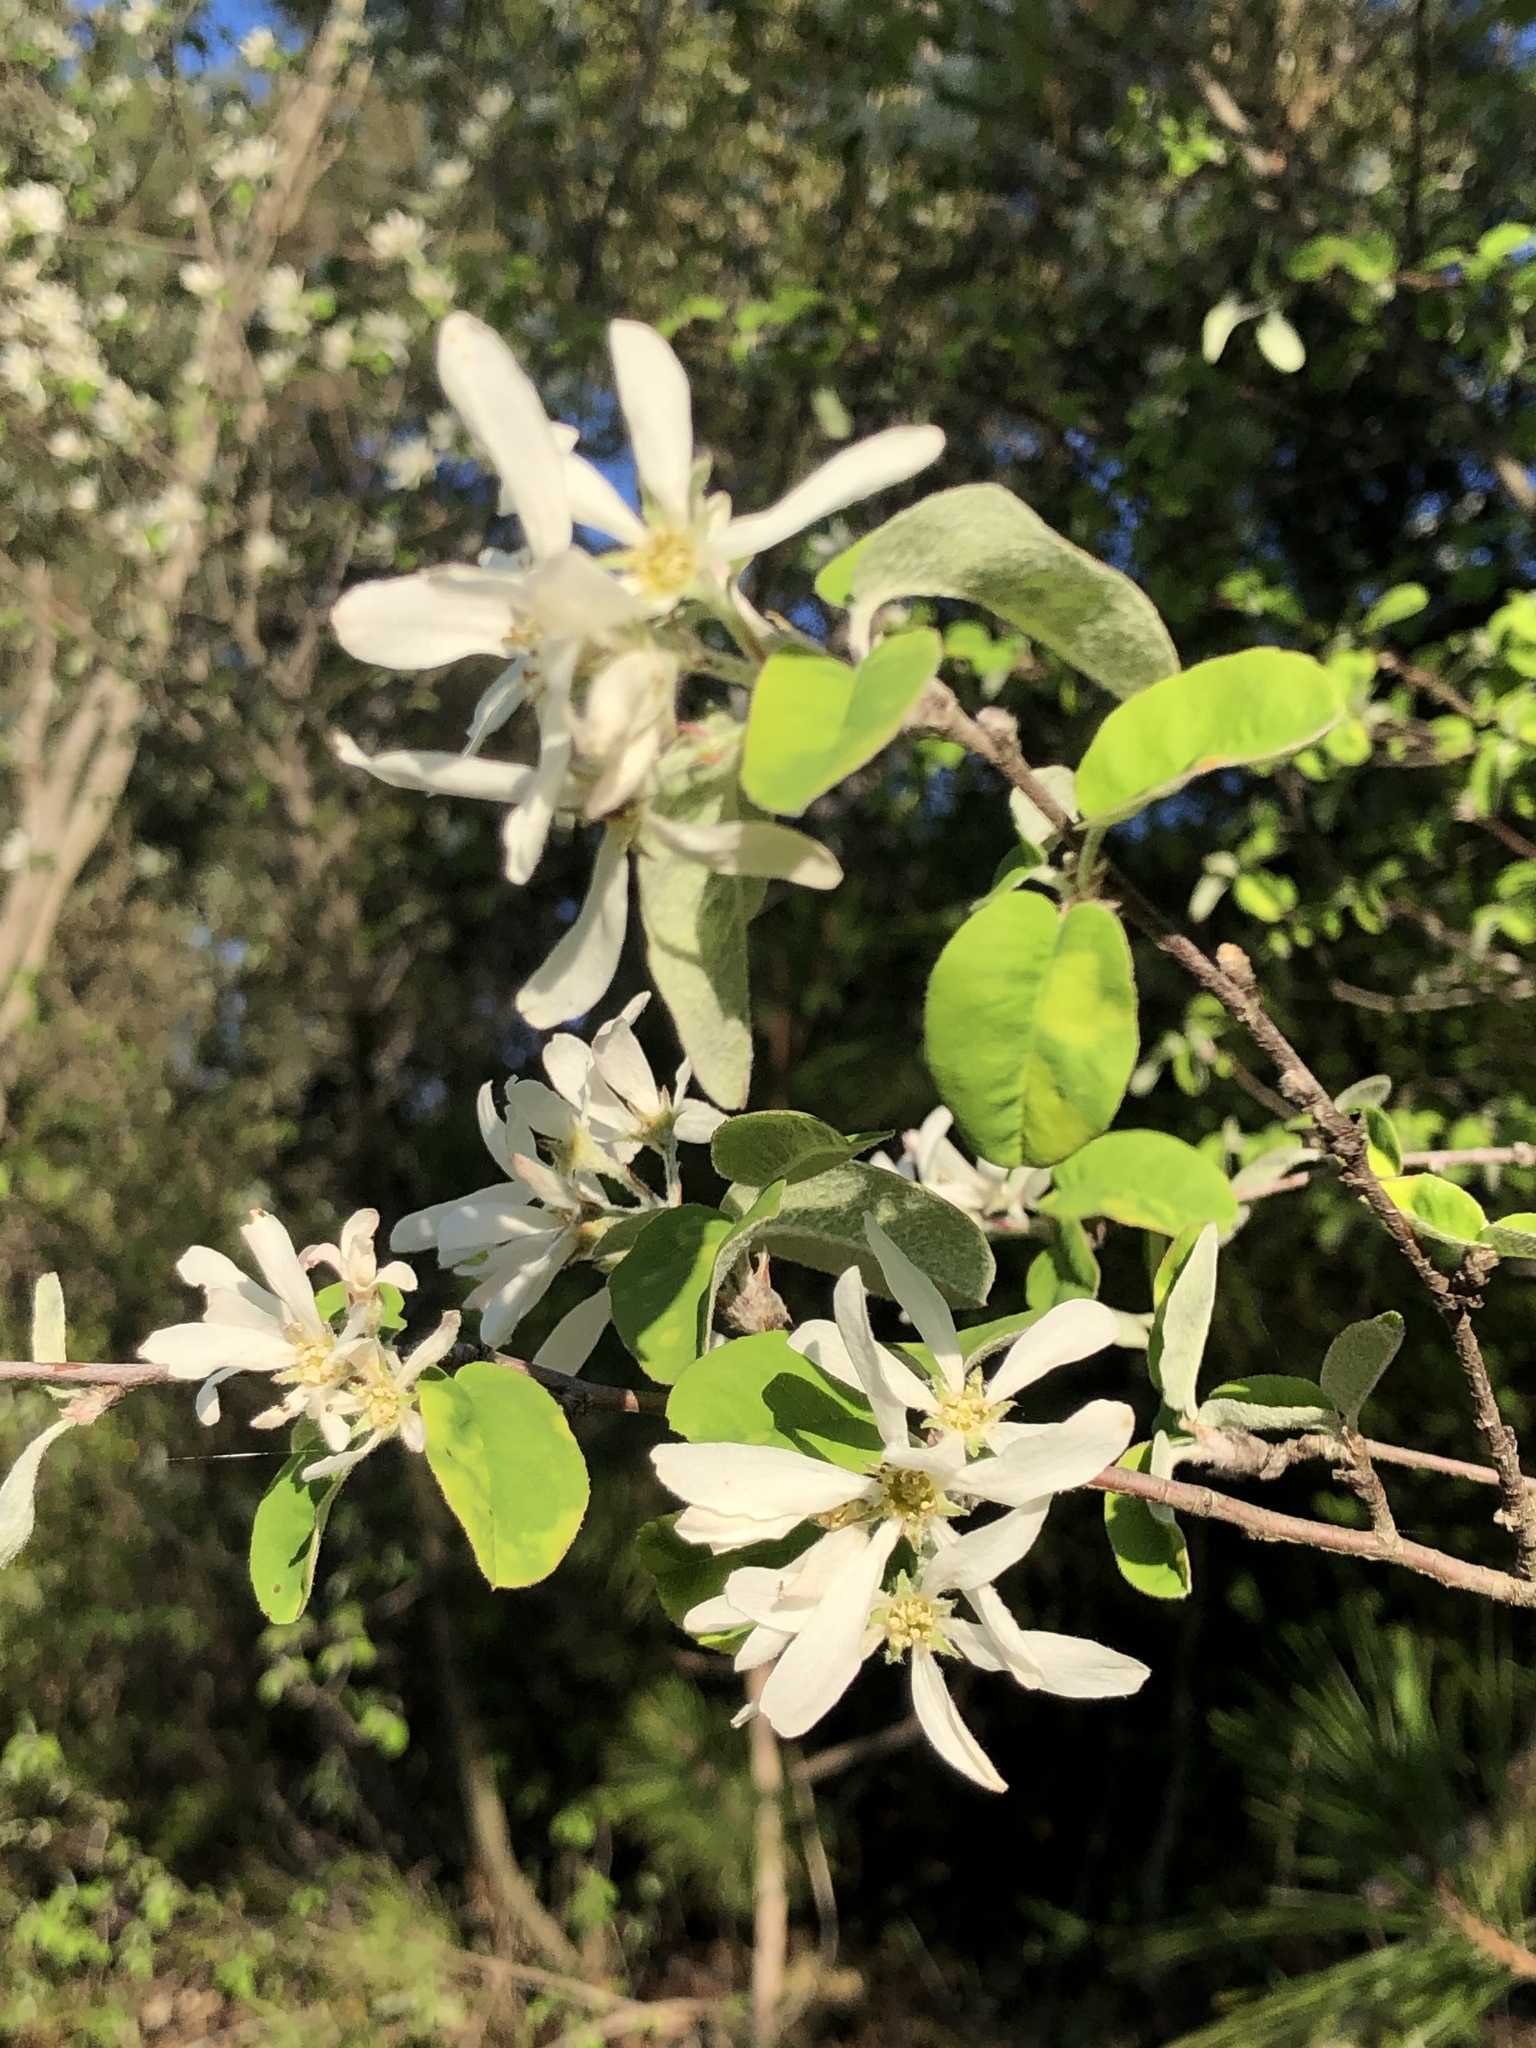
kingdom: Plantae
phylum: Tracheophyta
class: Magnoliopsida
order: Rosales
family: Rosaceae
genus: Amelanchier
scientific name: Amelanchier ovalis
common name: Serviceberry
